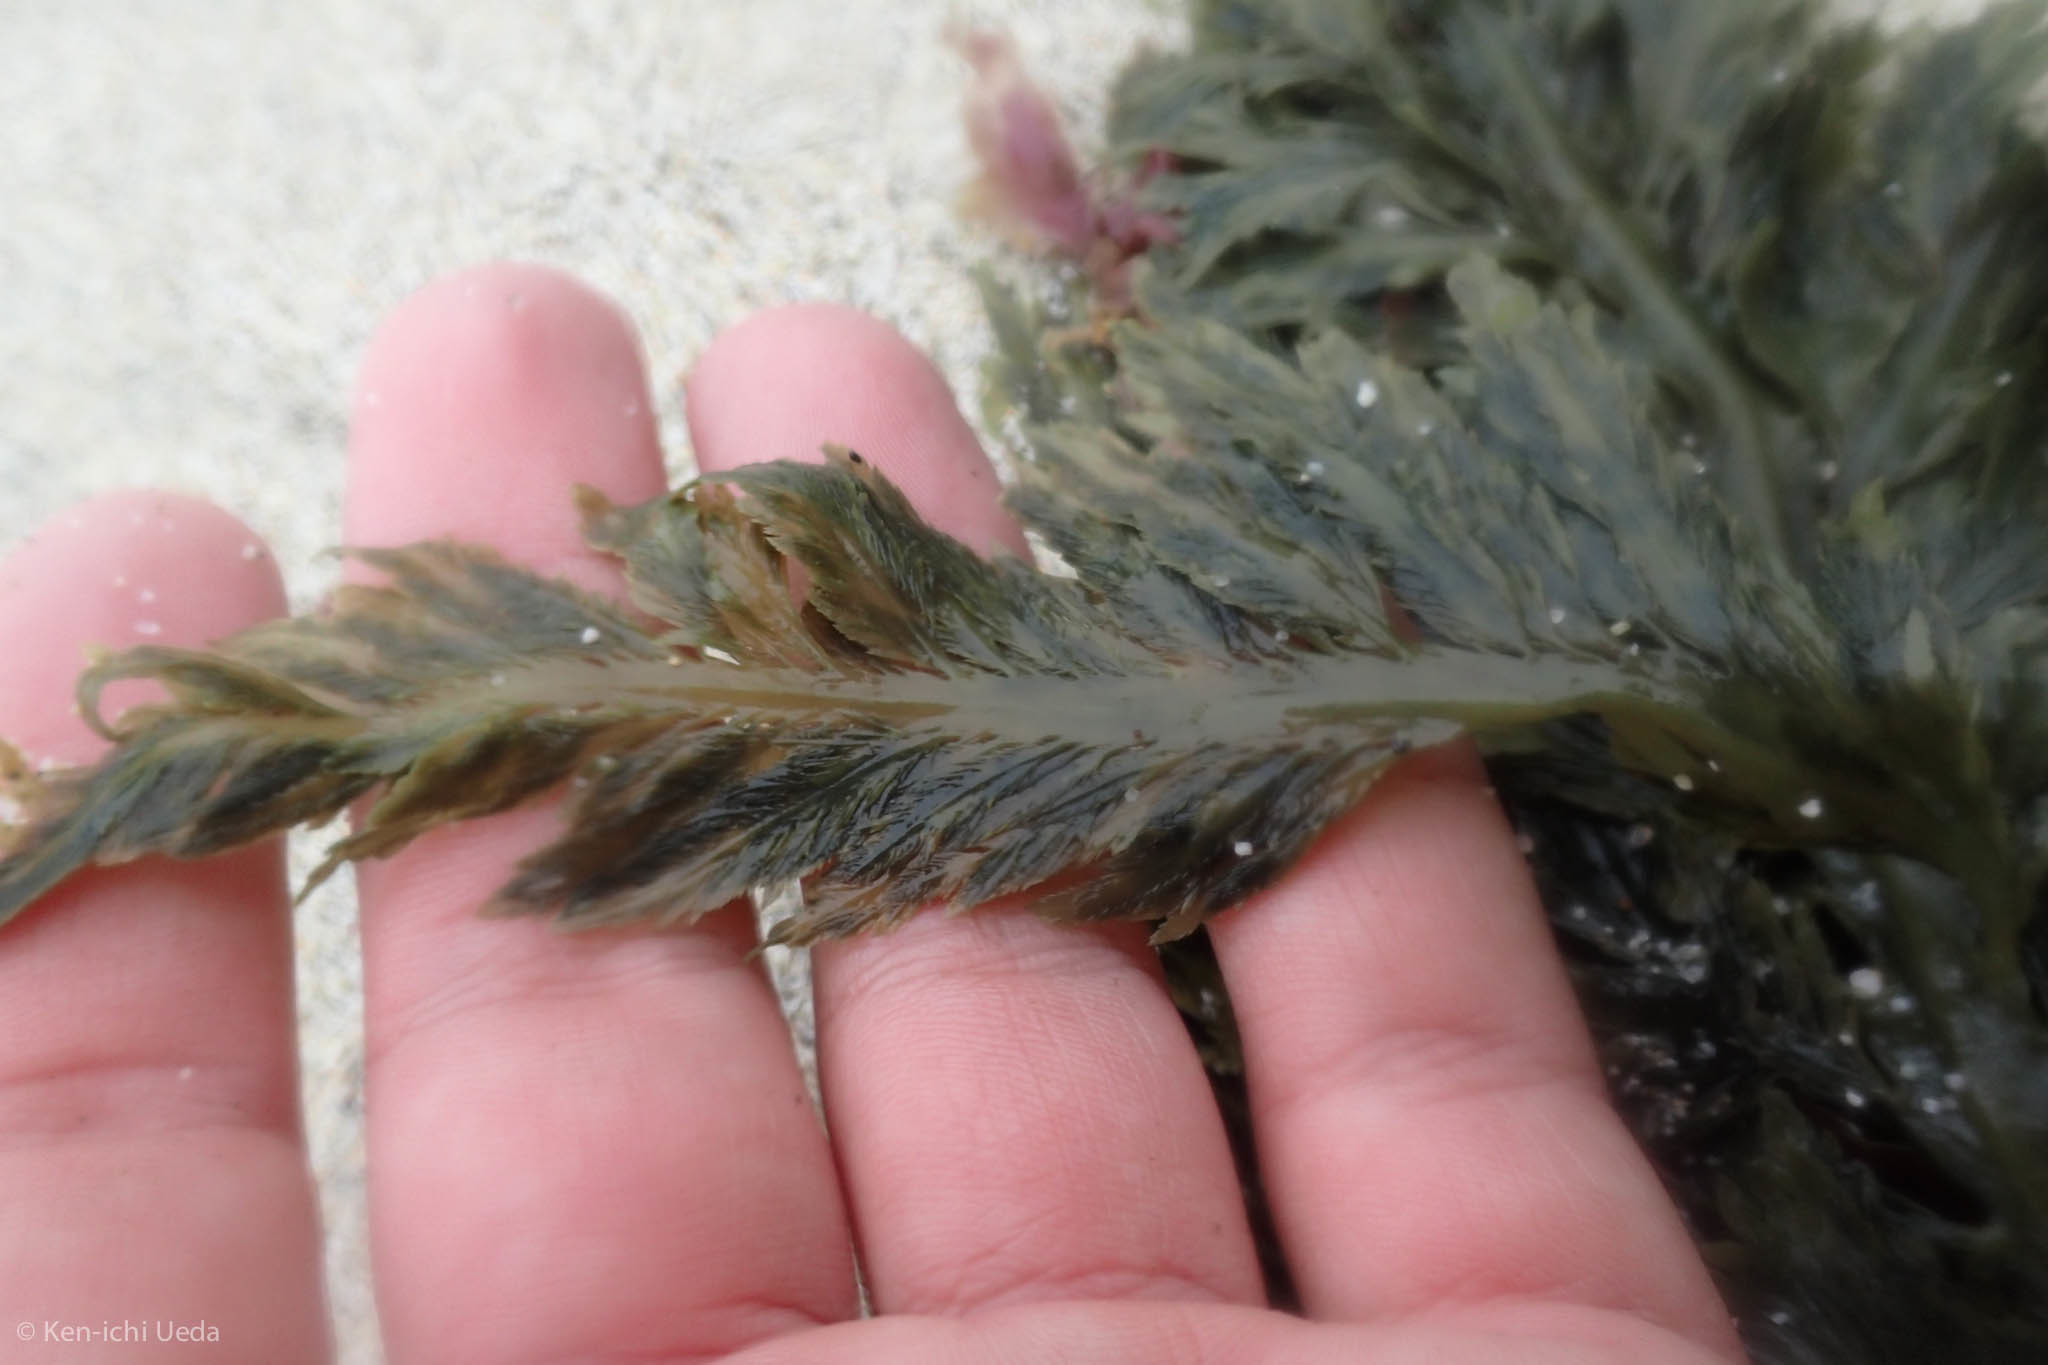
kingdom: Chromista
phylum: Ochrophyta
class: Phaeophyceae
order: Desmarestiales
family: Desmarestiaceae
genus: Desmarestia
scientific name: Desmarestia ligulata
